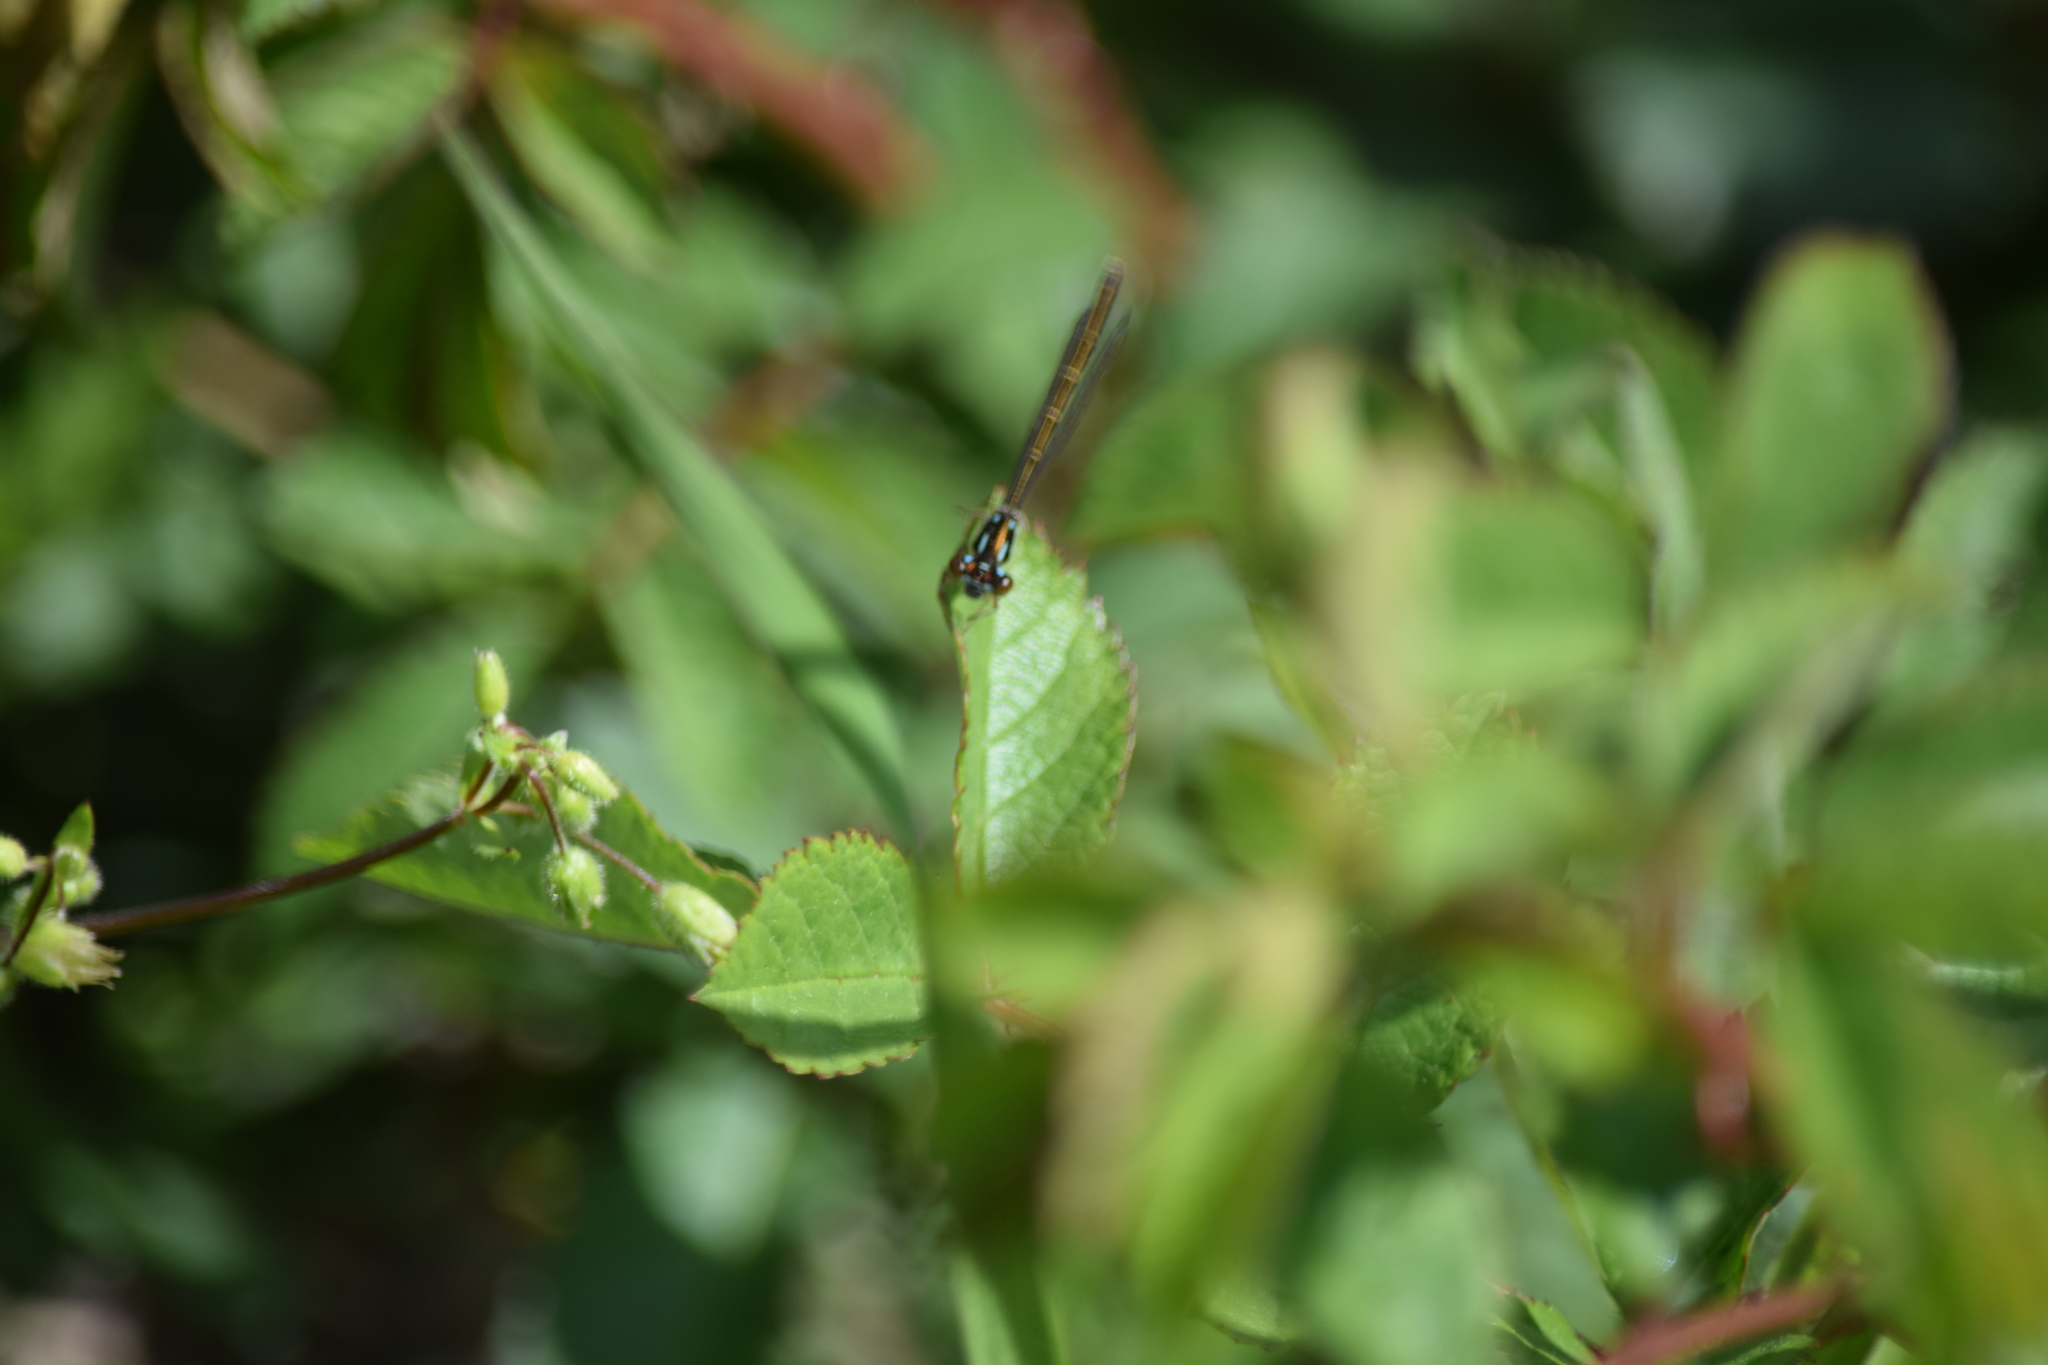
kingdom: Animalia
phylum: Arthropoda
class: Insecta
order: Odonata
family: Coenagrionidae
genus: Ischnura
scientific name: Ischnura posita
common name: Fragile forktail
